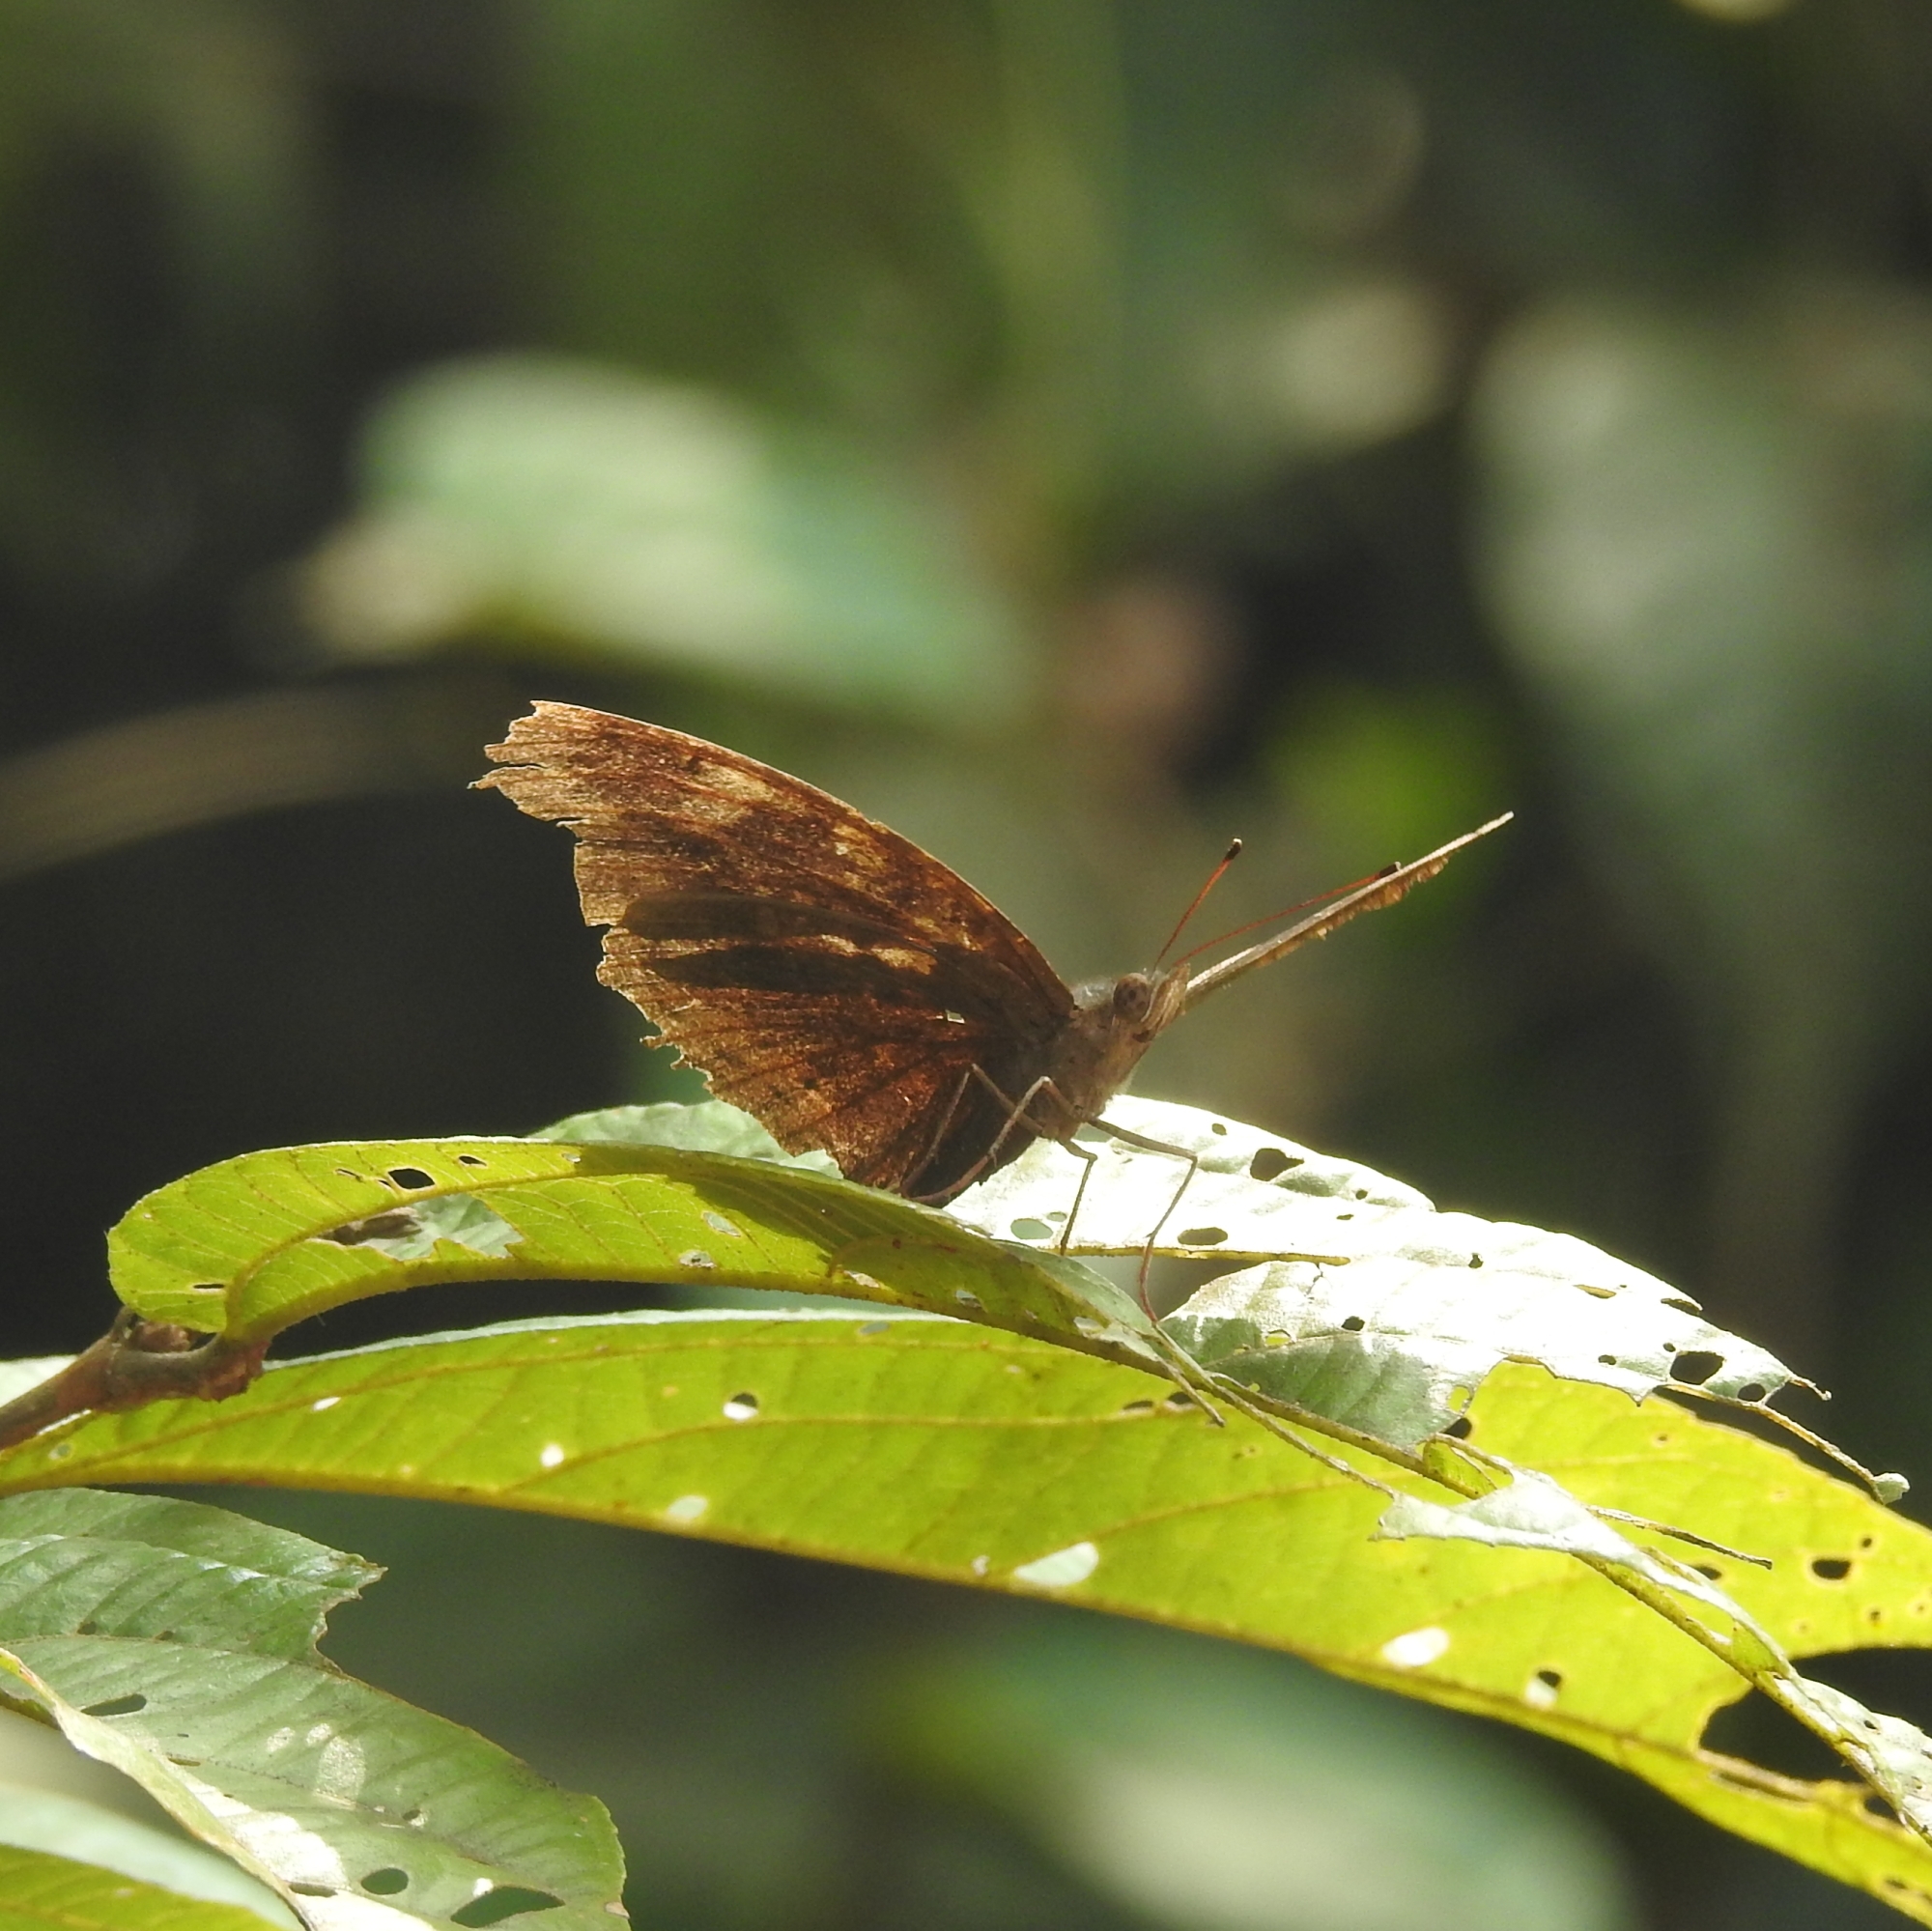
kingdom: Animalia
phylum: Arthropoda
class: Insecta
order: Lepidoptera
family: Nymphalidae
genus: Junonia
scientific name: Junonia iphita
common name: Chocolate pansy
